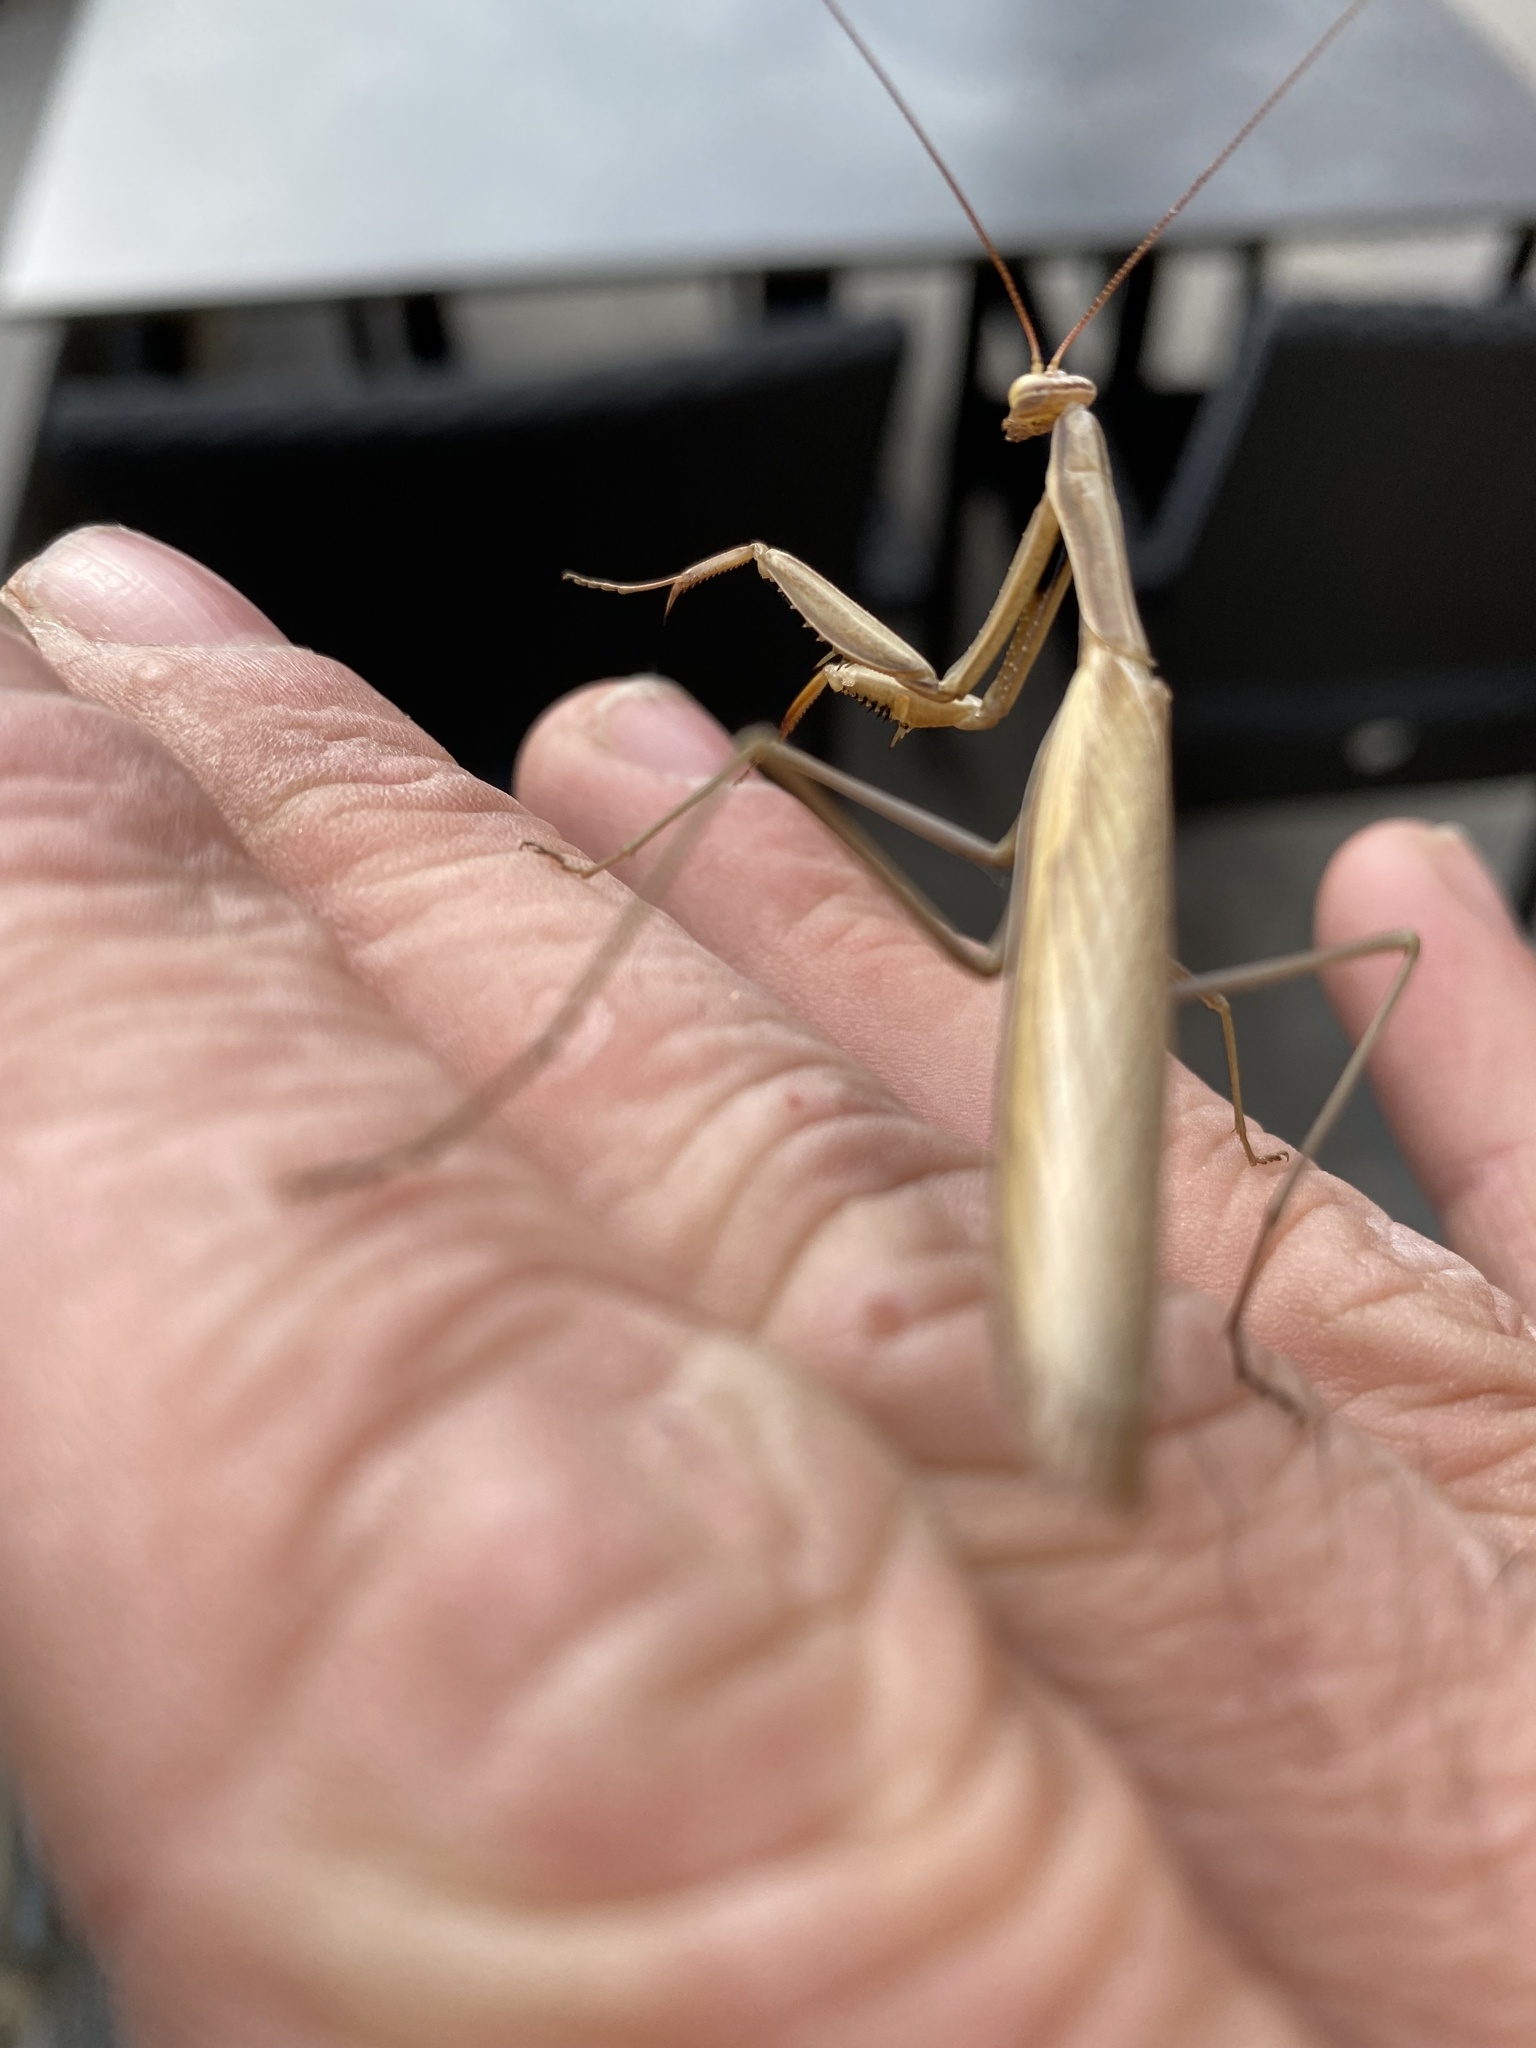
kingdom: Animalia
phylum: Arthropoda
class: Insecta
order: Mantodea
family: Mantidae
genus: Mantis
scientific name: Mantis religiosa
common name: Praying mantis
